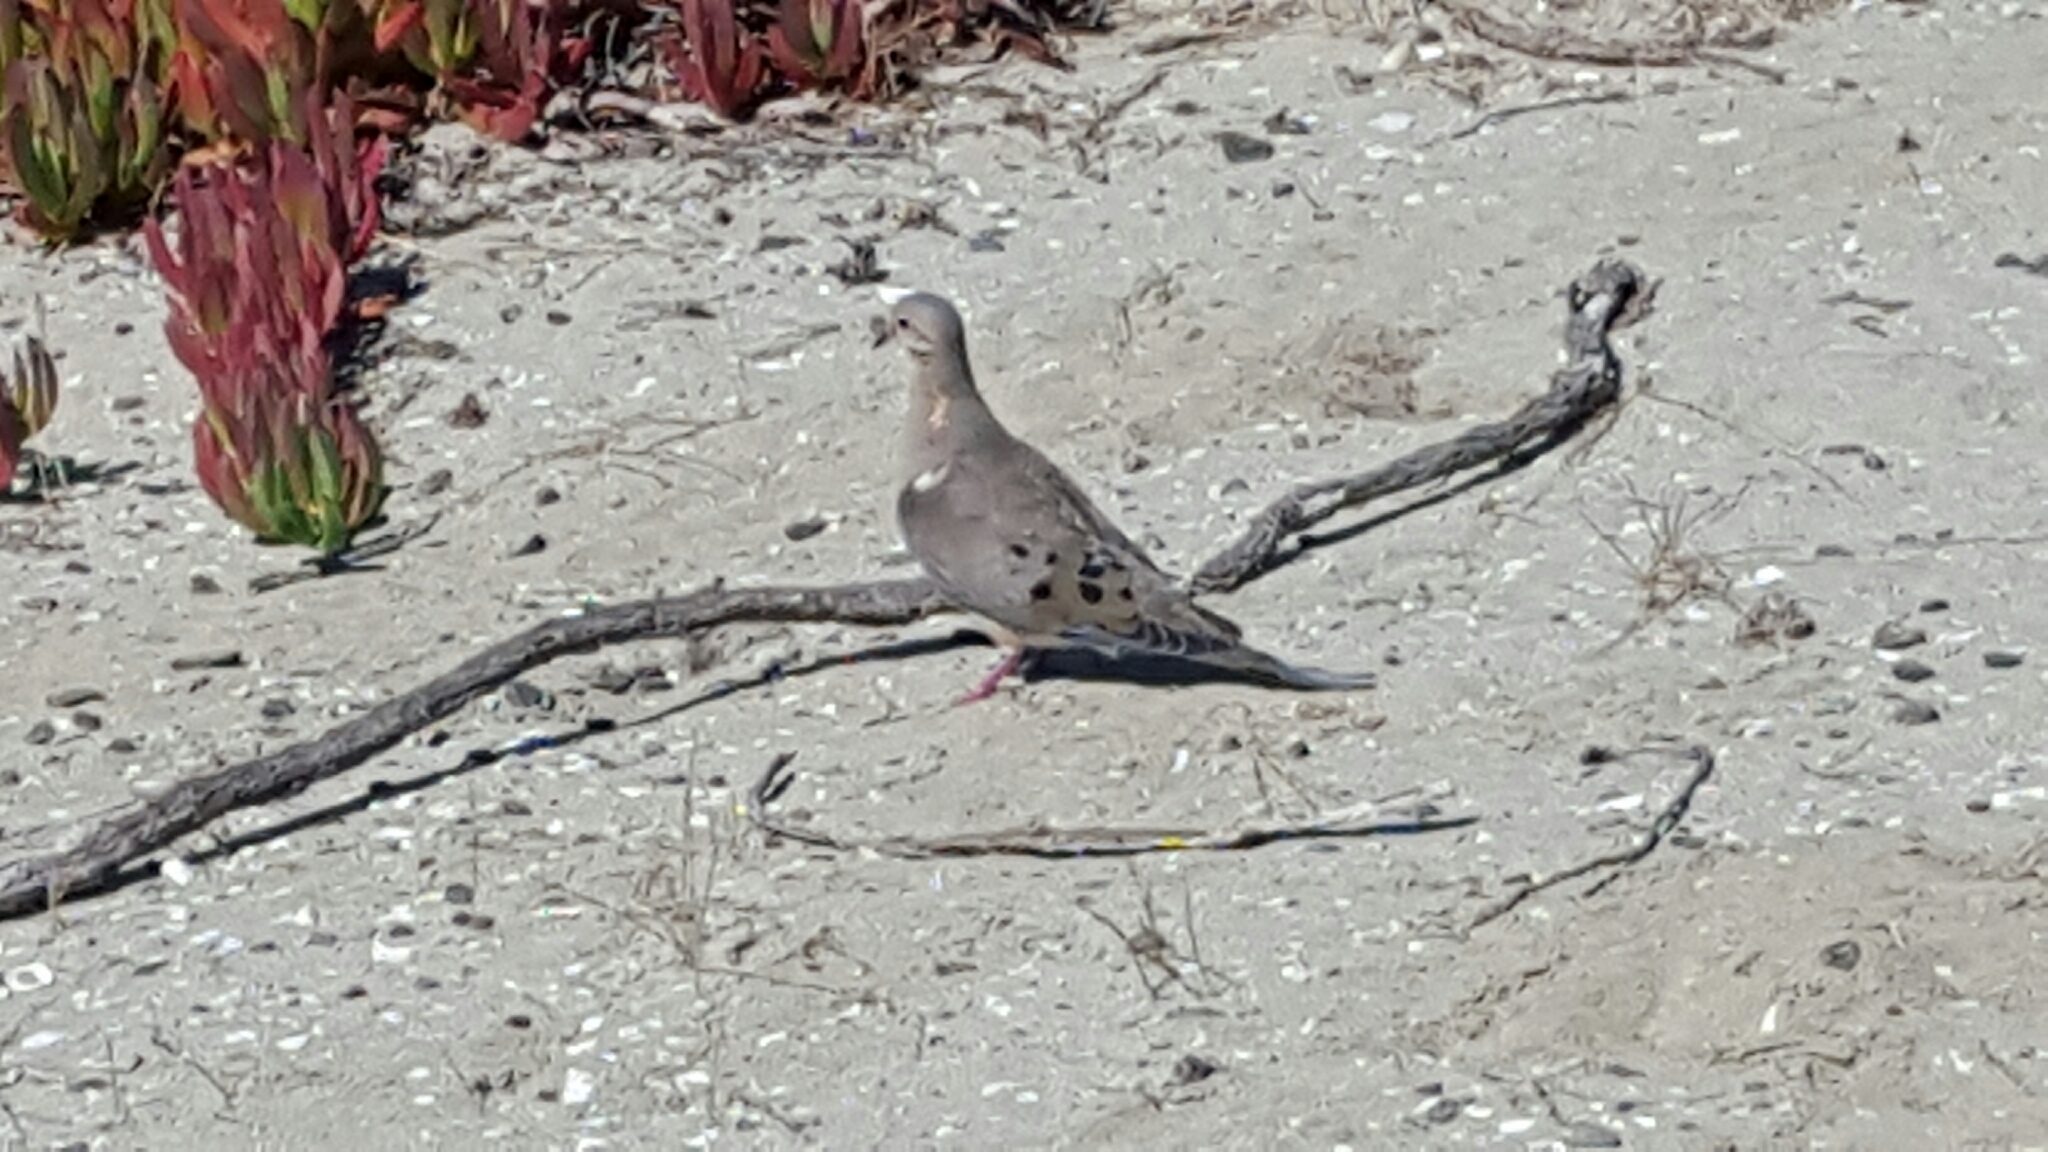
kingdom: Animalia
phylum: Chordata
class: Aves
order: Columbiformes
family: Columbidae
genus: Zenaida
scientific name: Zenaida macroura
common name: Mourning dove
